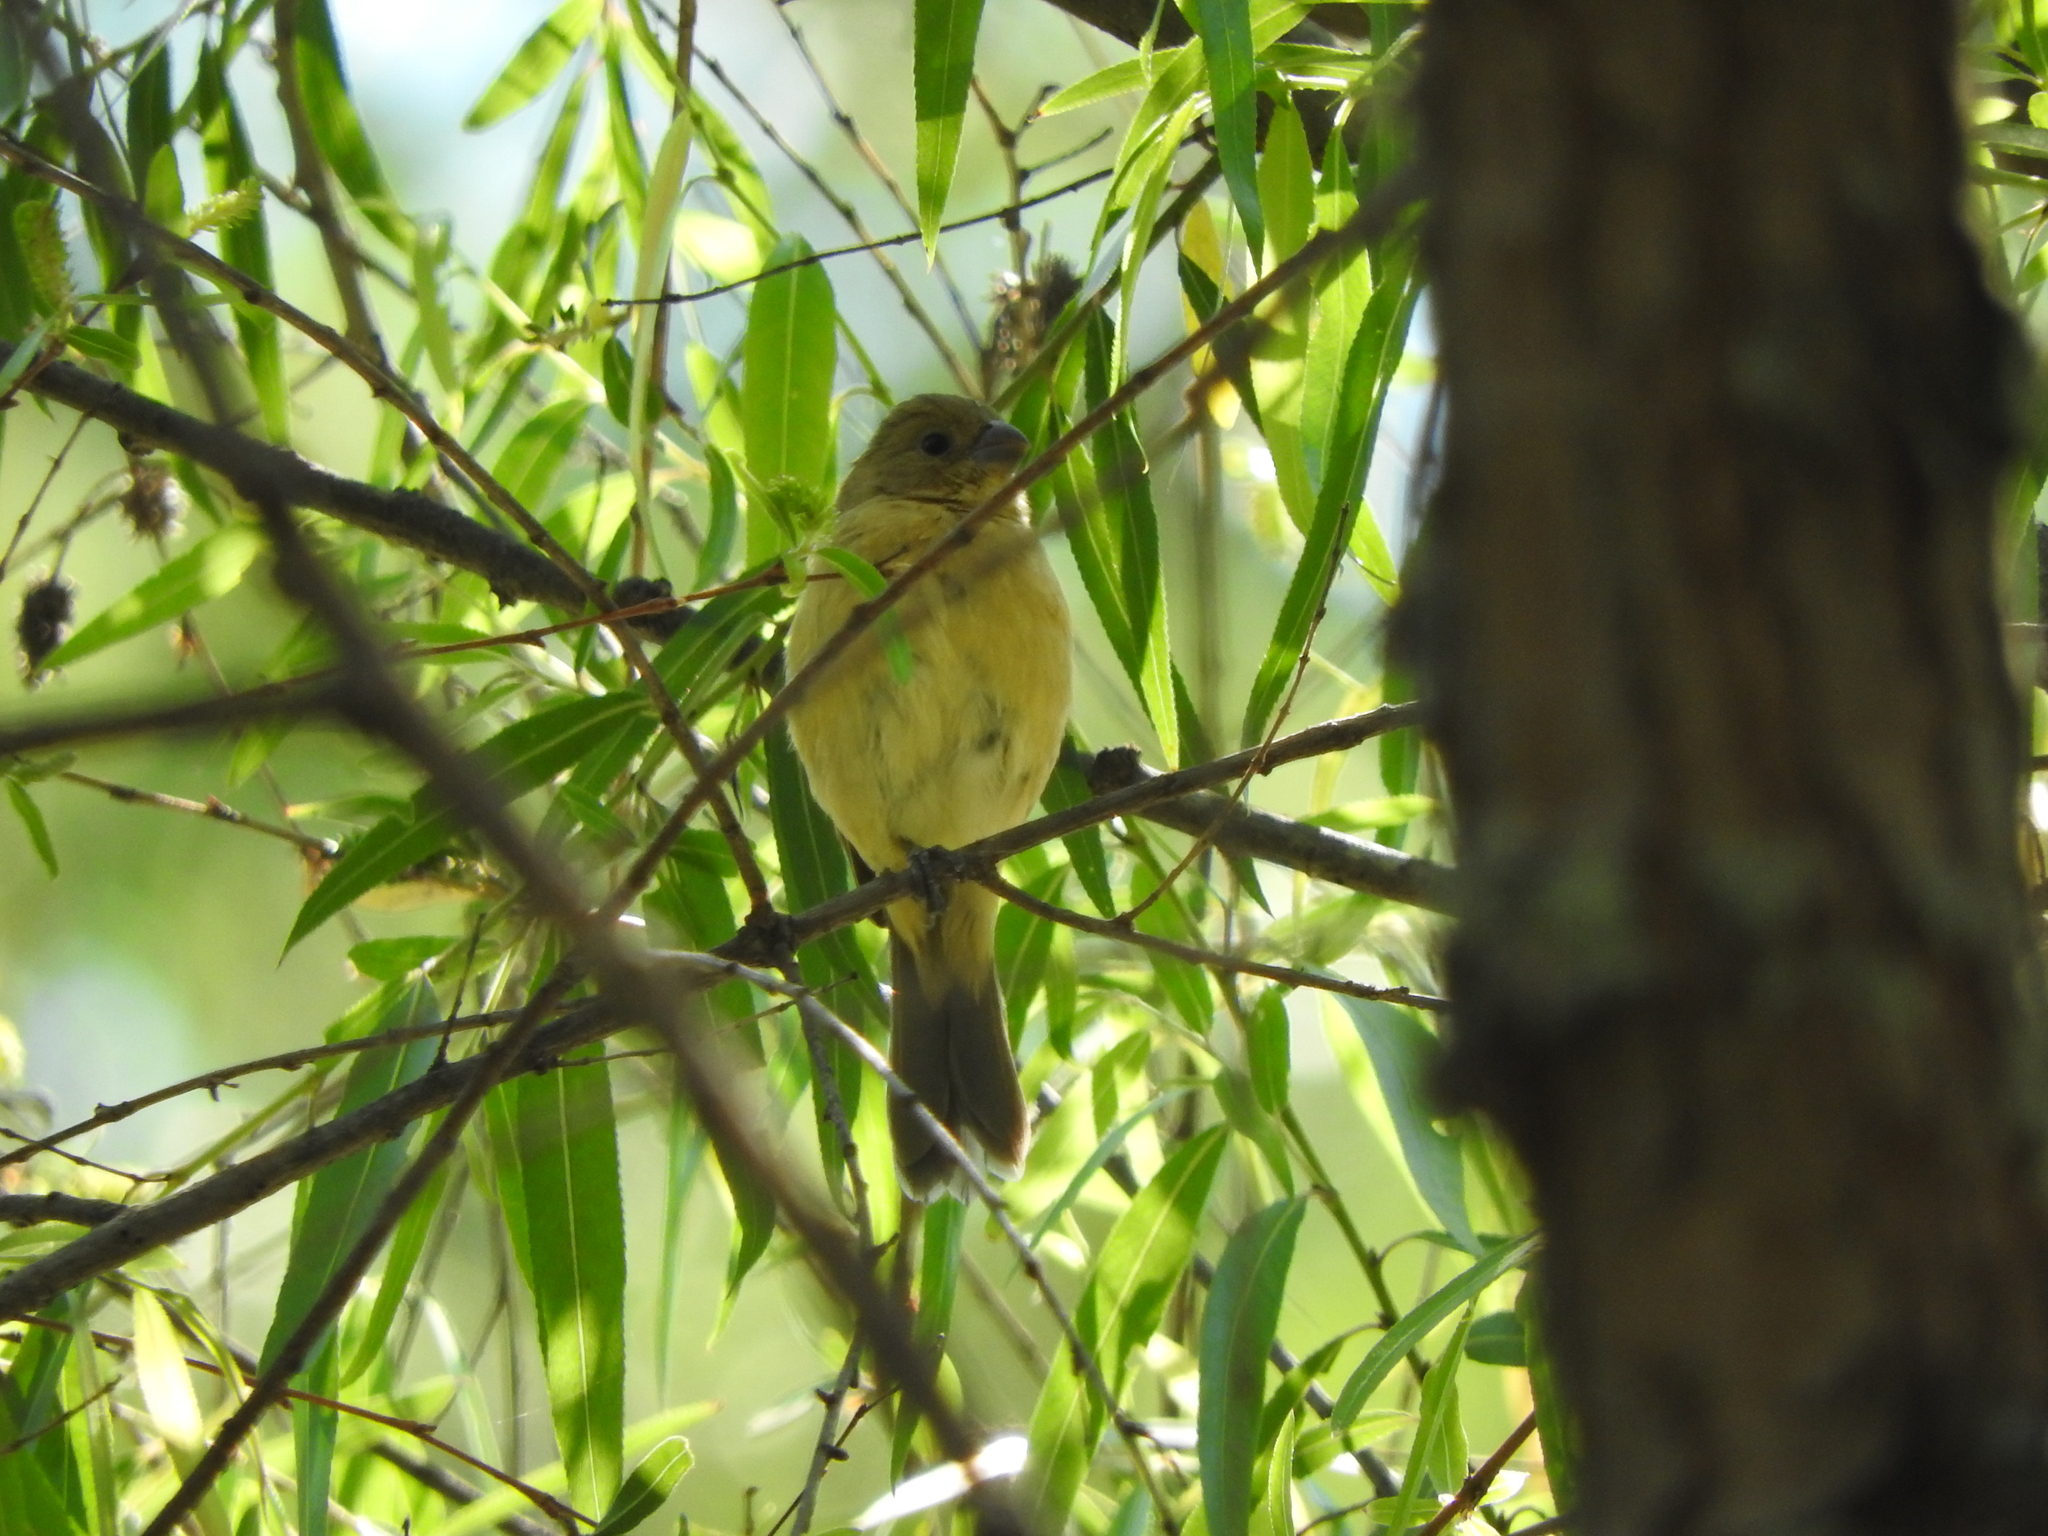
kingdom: Animalia
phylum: Chordata
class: Aves
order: Passeriformes
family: Thraupidae
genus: Sporophila
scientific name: Sporophila torqueola
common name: White-collared seedeater
